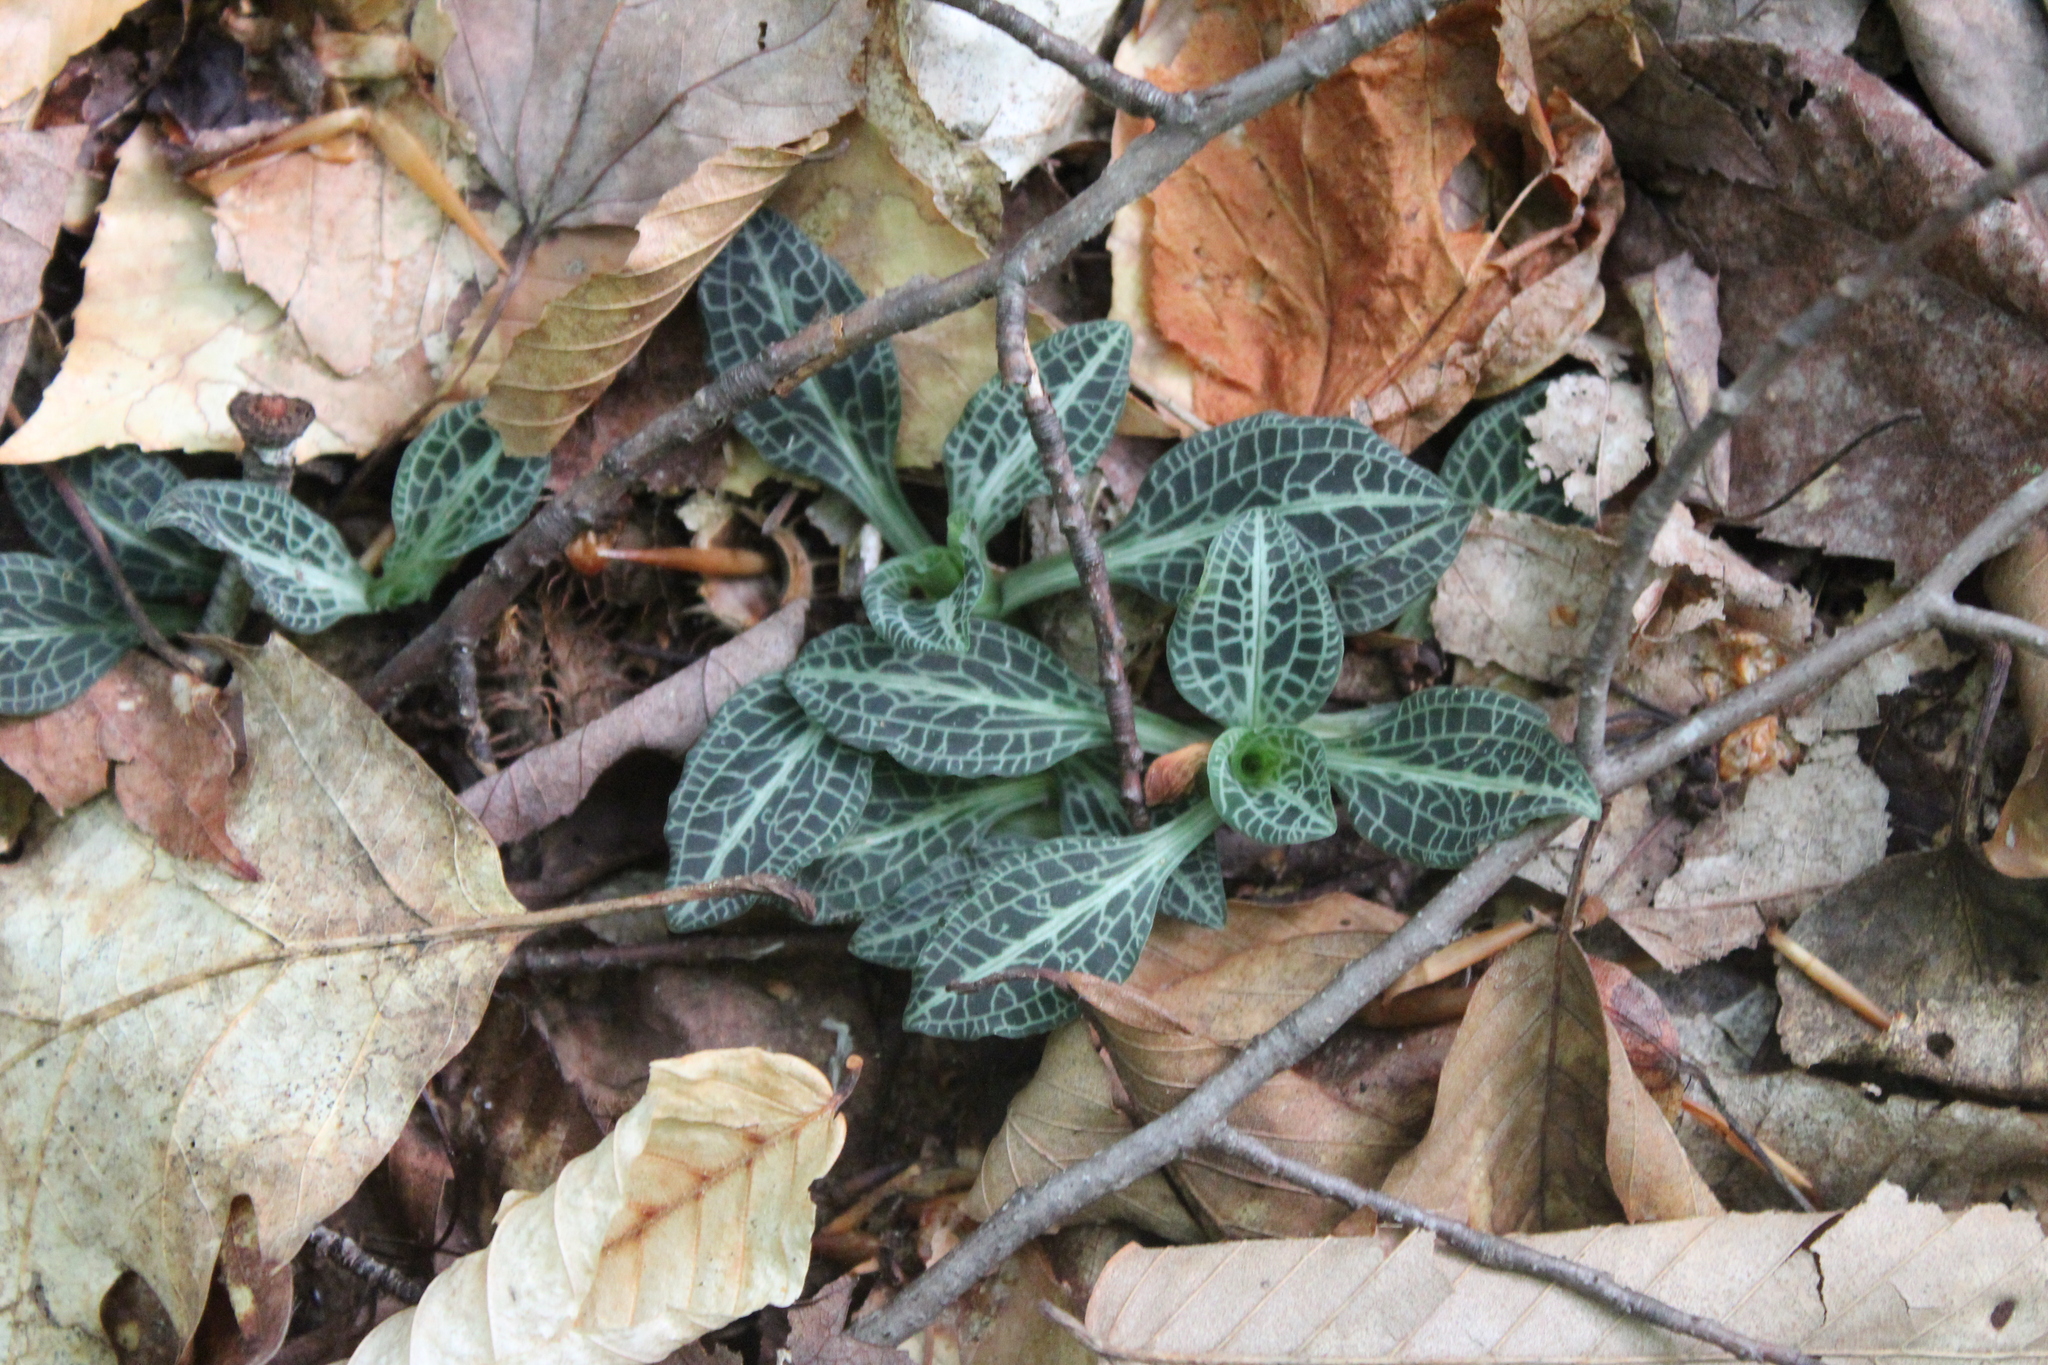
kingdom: Plantae
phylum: Tracheophyta
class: Liliopsida
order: Asparagales
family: Orchidaceae
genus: Goodyera
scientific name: Goodyera pubescens
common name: Downy rattlesnake-plantain
